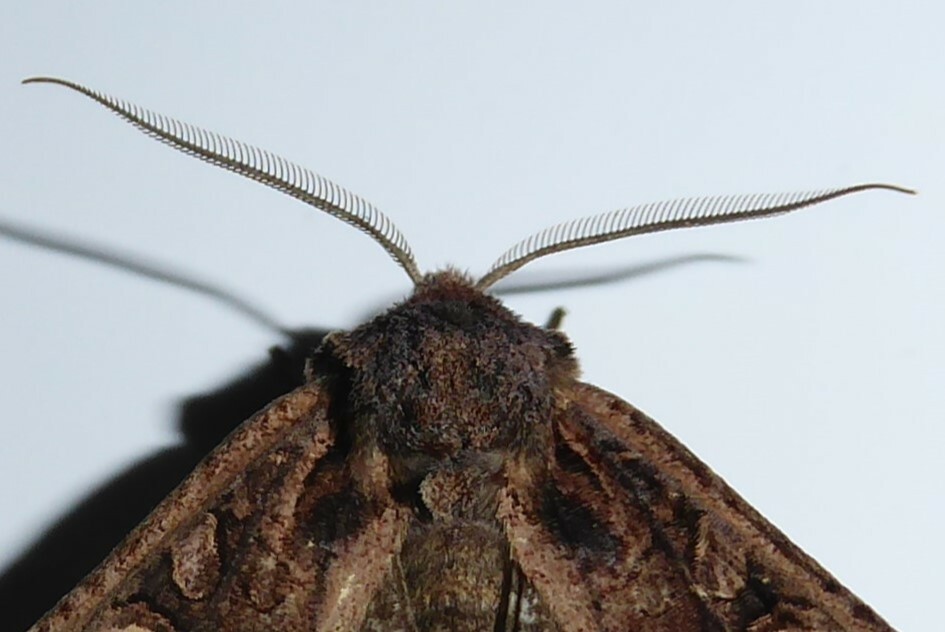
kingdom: Animalia
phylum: Arthropoda
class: Insecta
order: Lepidoptera
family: Noctuidae
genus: Ichneutica
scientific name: Ichneutica
